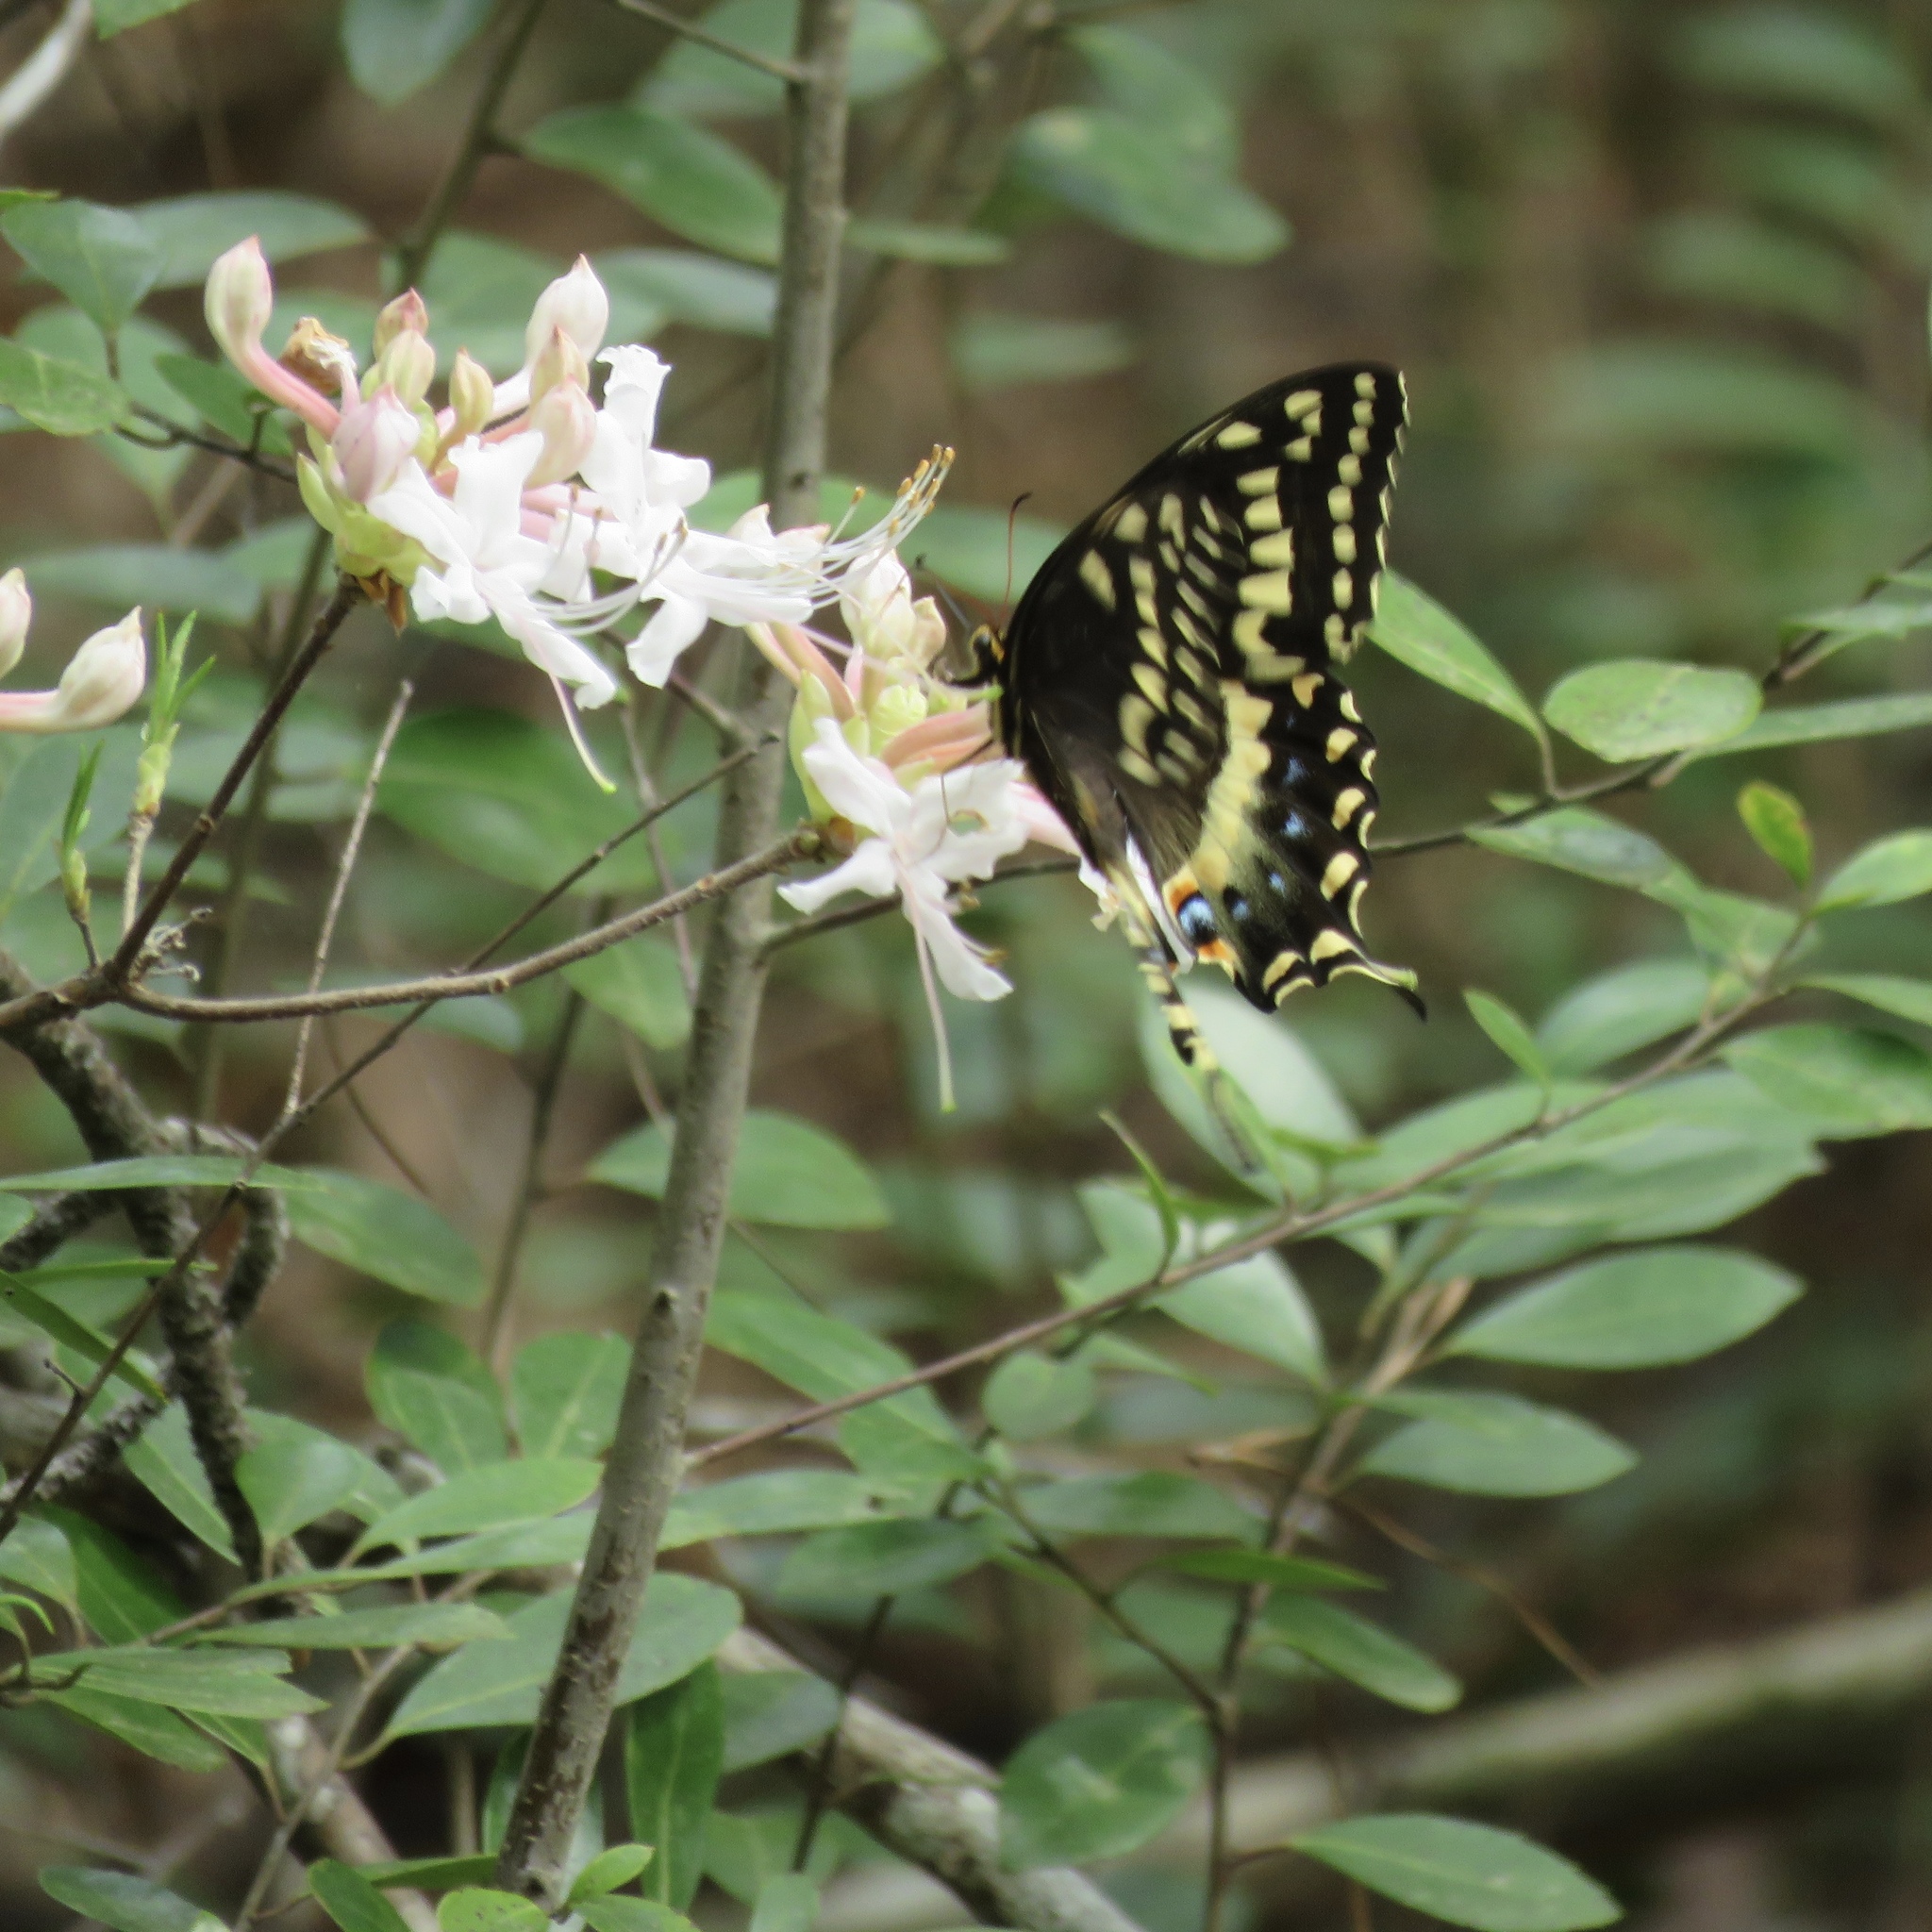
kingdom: Animalia
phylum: Arthropoda
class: Insecta
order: Lepidoptera
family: Papilionidae
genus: Papilio
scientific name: Papilio palamedes
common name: Palamedes swallowtail
